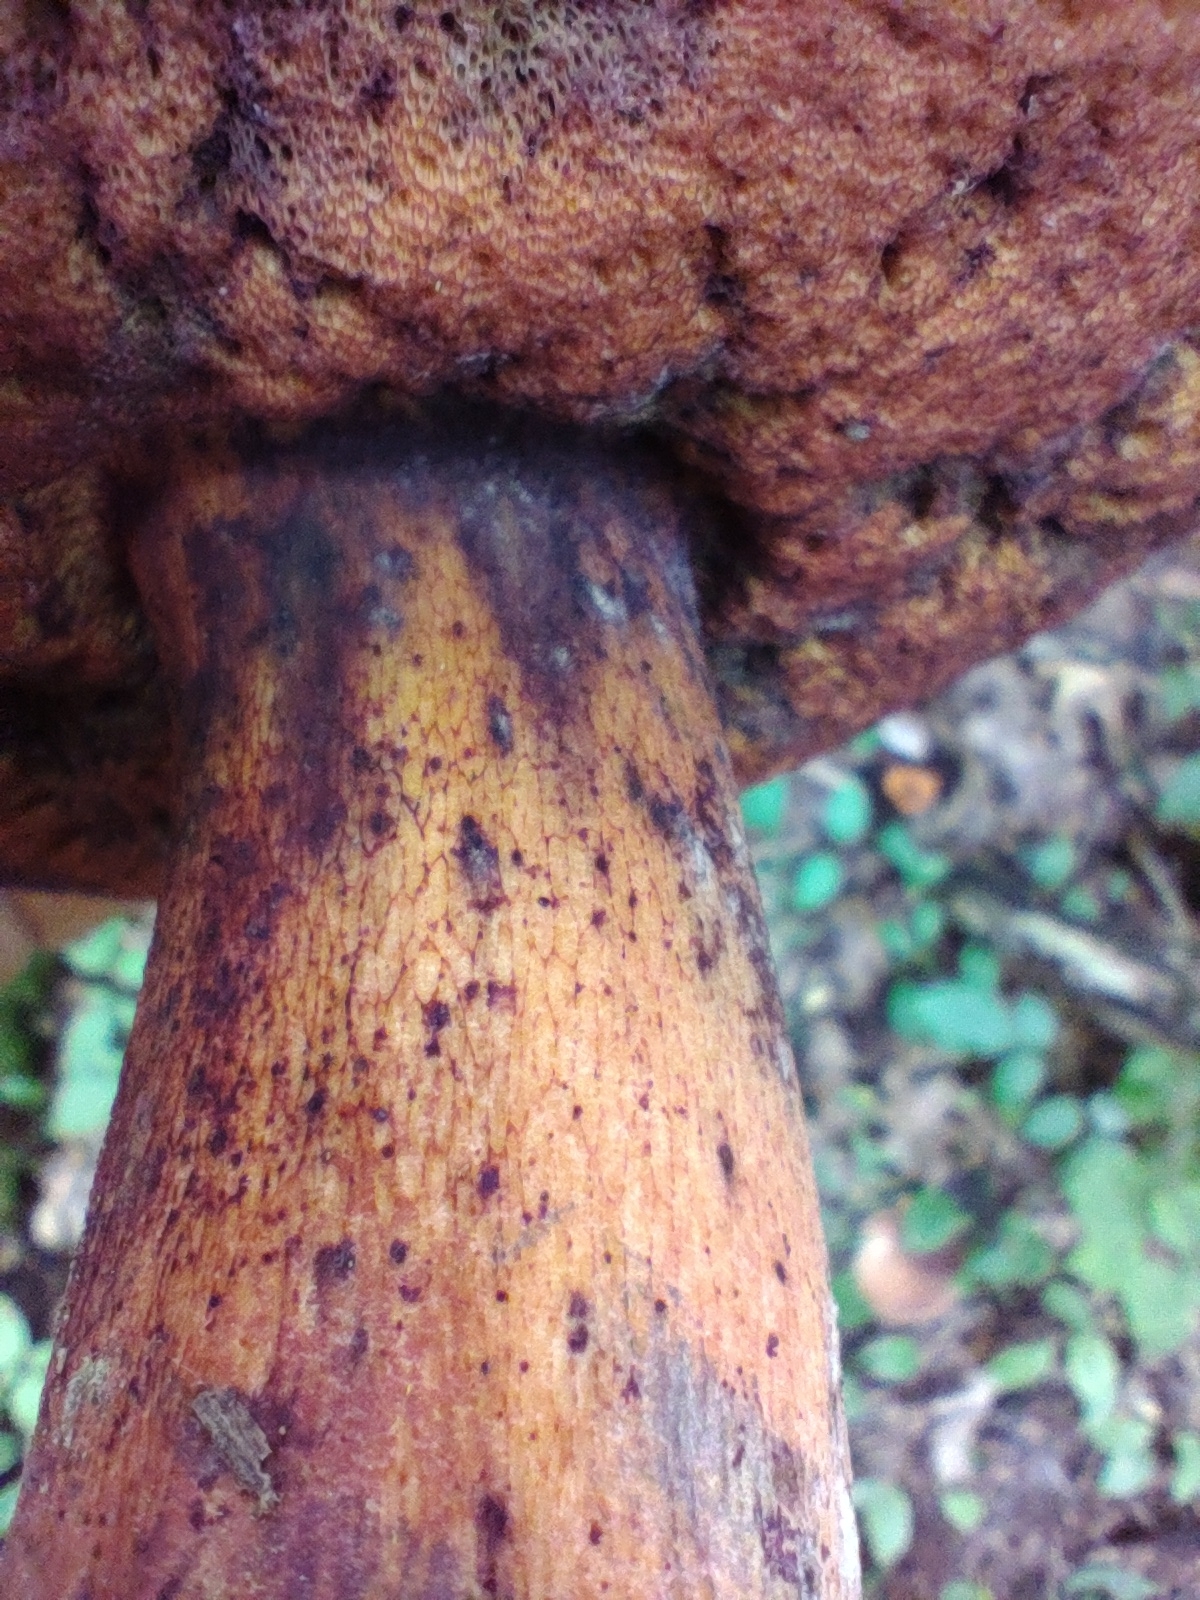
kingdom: Fungi
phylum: Basidiomycota
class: Agaricomycetes
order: Boletales
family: Boletaceae
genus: Rubroboletus
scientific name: Rubroboletus rhodosanguineus
